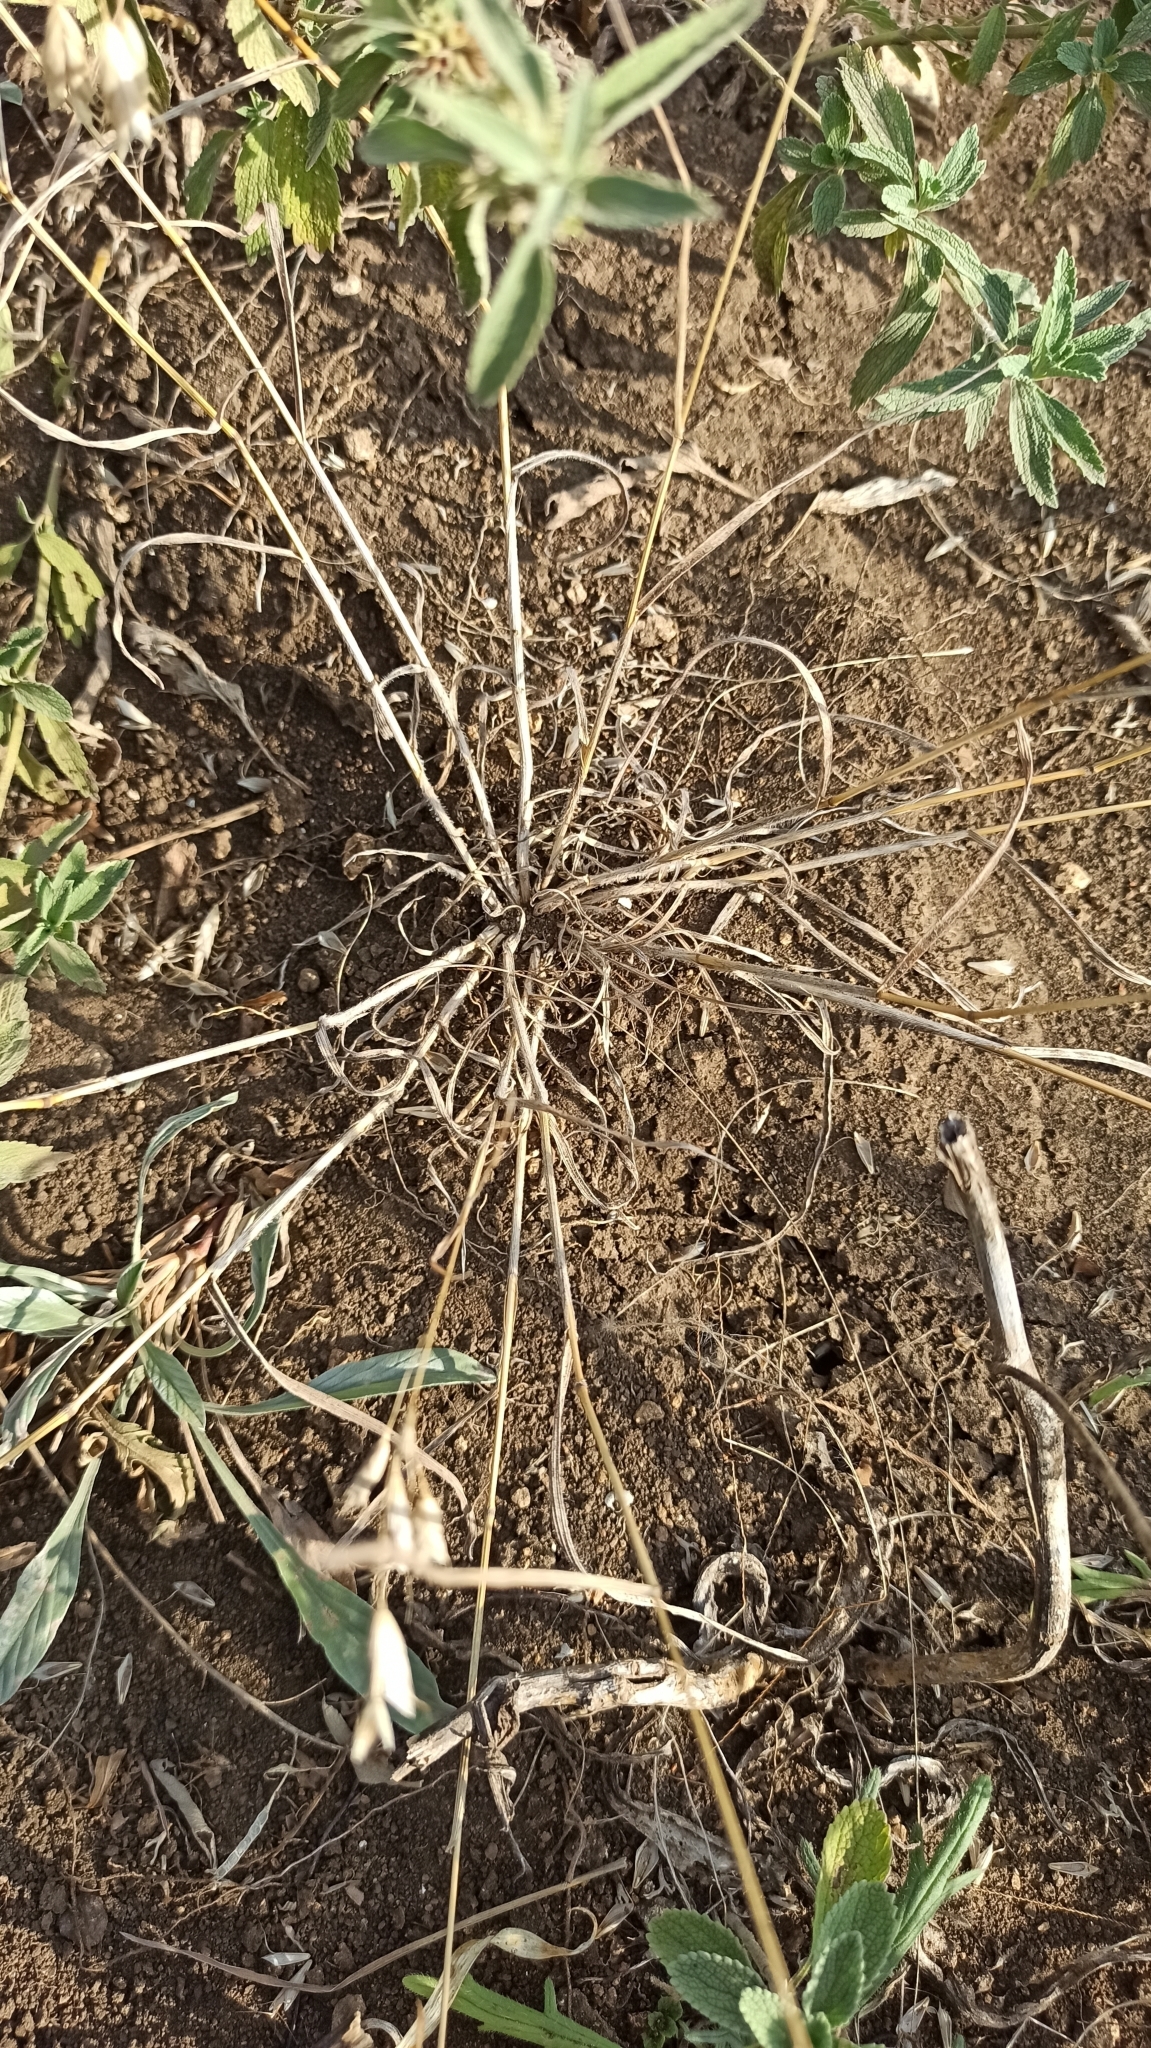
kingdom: Plantae
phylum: Tracheophyta
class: Liliopsida
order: Poales
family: Poaceae
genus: Bromus
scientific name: Bromus squarrosus
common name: Corn brome
